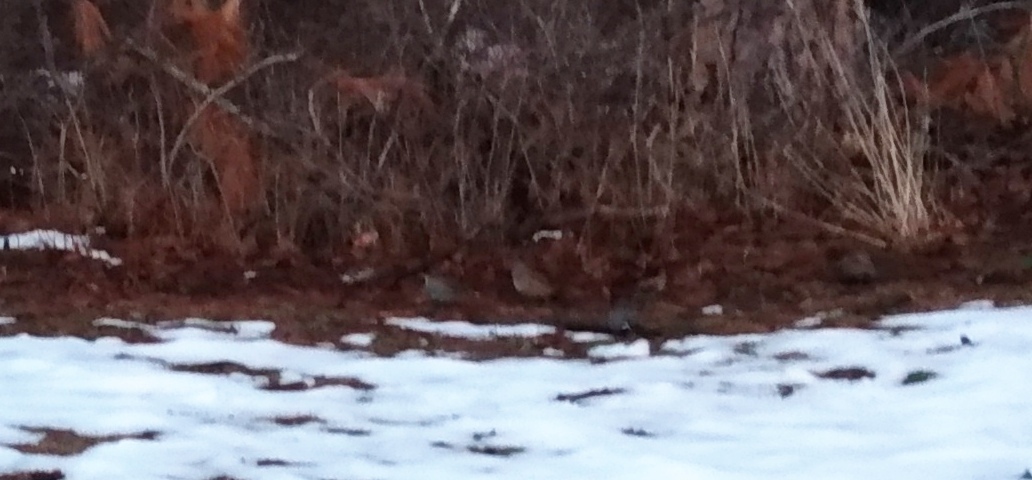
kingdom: Animalia
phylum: Chordata
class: Aves
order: Galliformes
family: Odontophoridae
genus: Callipepla
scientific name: Callipepla californica
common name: California quail
